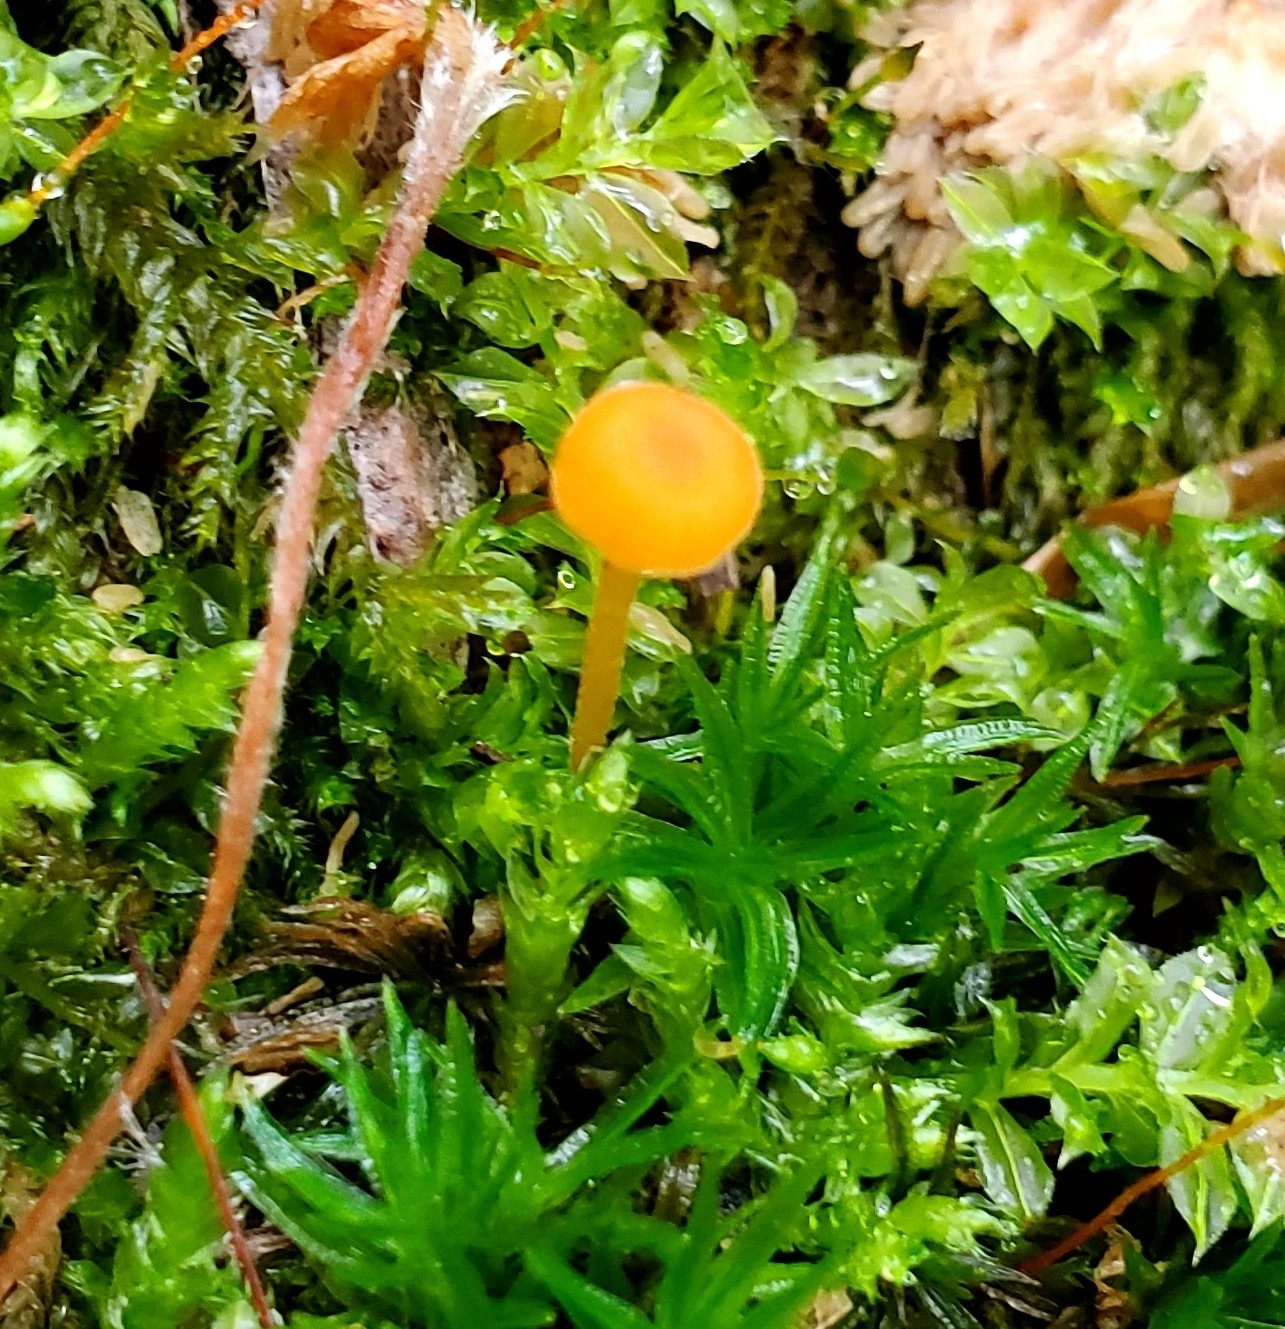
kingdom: Fungi
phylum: Basidiomycota
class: Agaricomycetes
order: Hymenochaetales
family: Rickenellaceae
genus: Rickenella
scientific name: Rickenella fibula
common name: Orange mosscap
